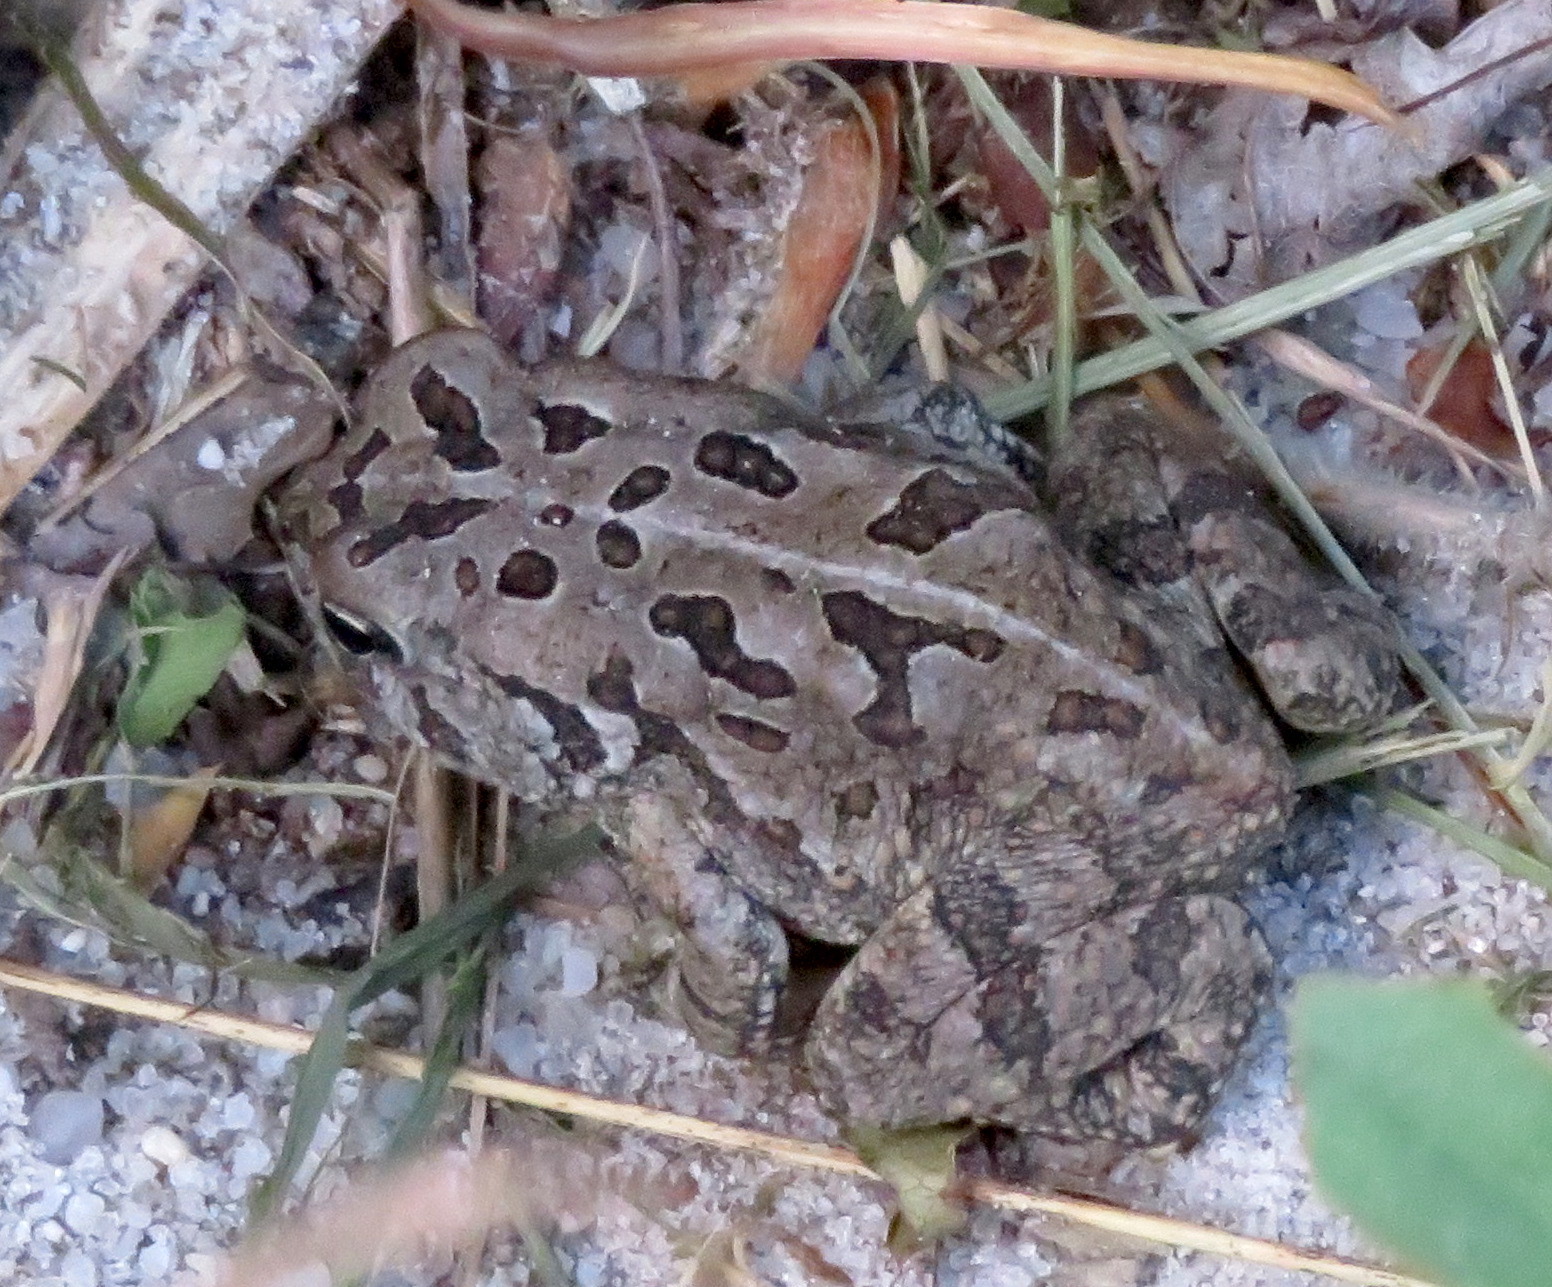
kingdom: Animalia
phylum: Chordata
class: Amphibia
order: Anura
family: Bufonidae
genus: Anaxyrus
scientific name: Anaxyrus fowleri
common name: Fowler's toad
